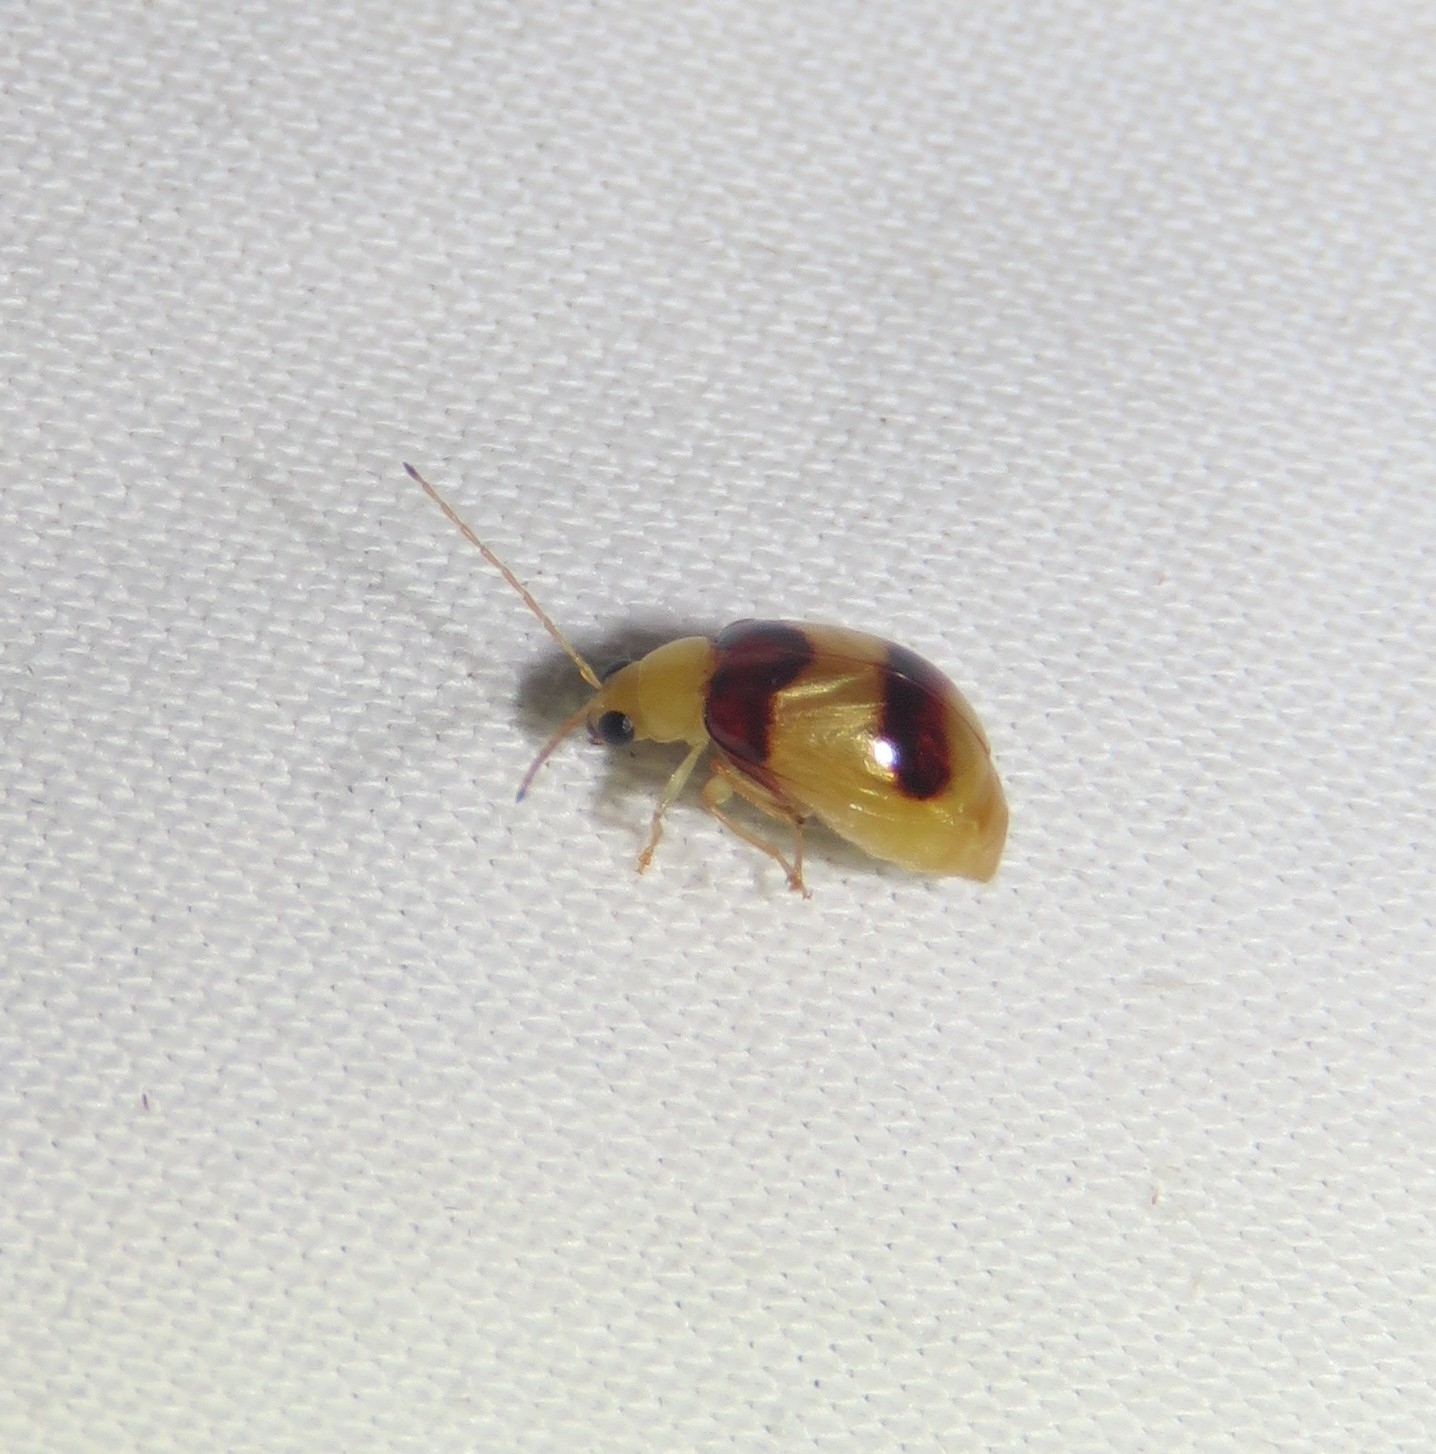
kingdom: Animalia
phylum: Arthropoda
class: Insecta
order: Coleoptera
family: Chrysomelidae
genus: Monolepta
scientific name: Monolepta
